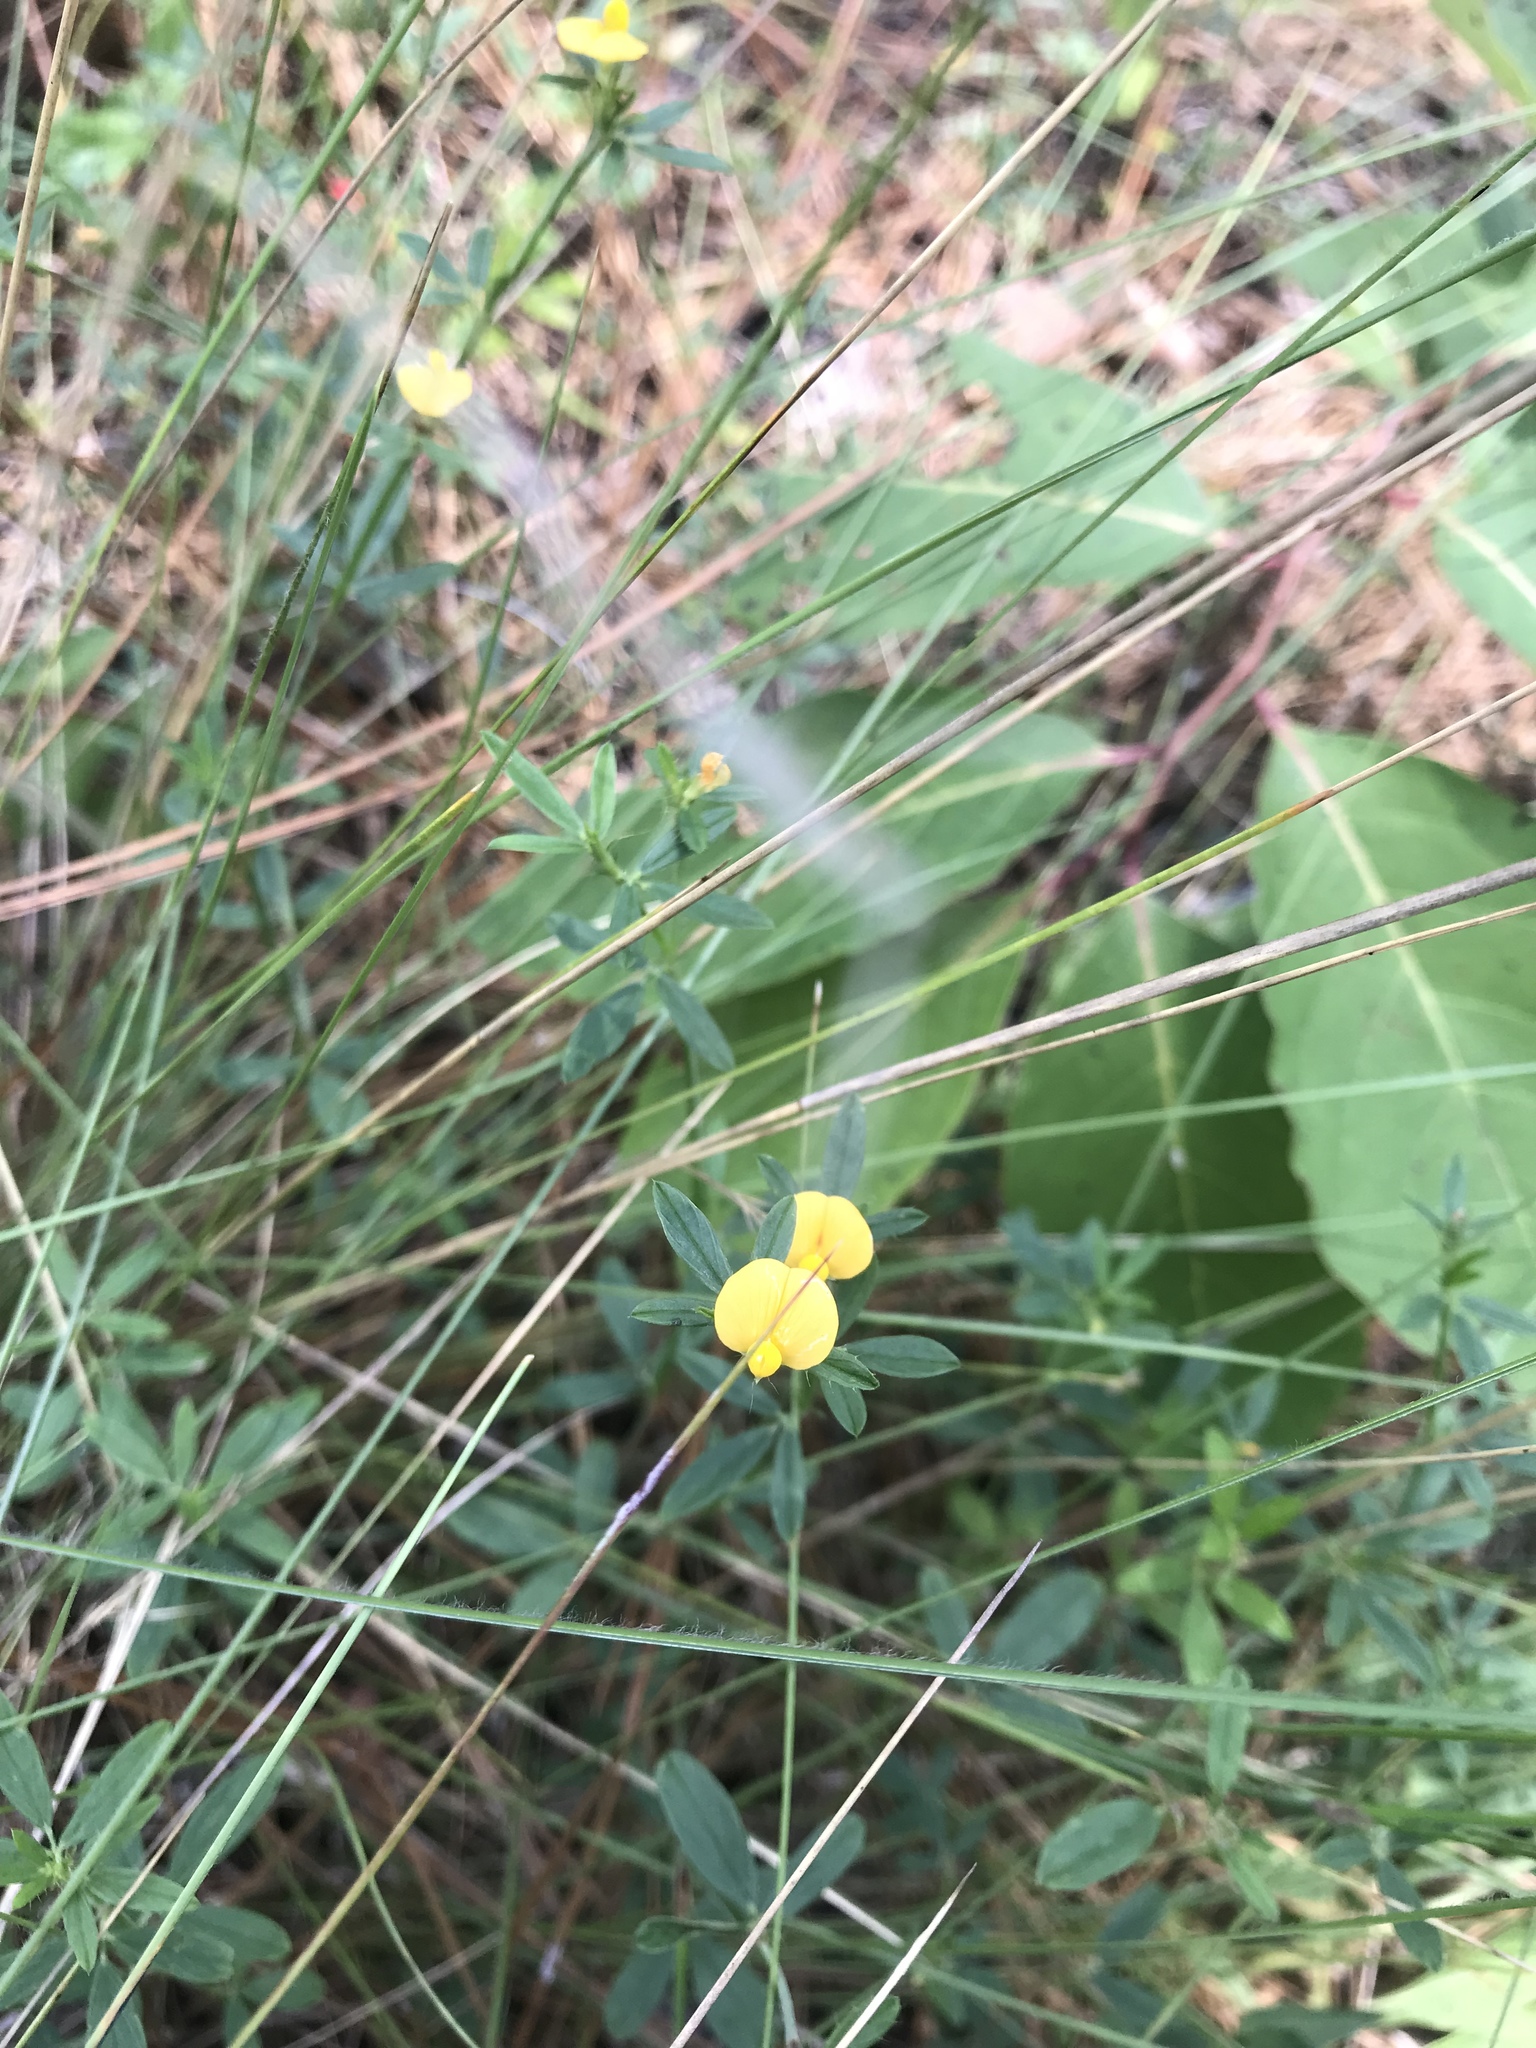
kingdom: Plantae
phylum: Tracheophyta
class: Magnoliopsida
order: Fabales
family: Fabaceae
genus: Stylosanthes
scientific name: Stylosanthes biflora
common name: Two-flower pencil-flower
